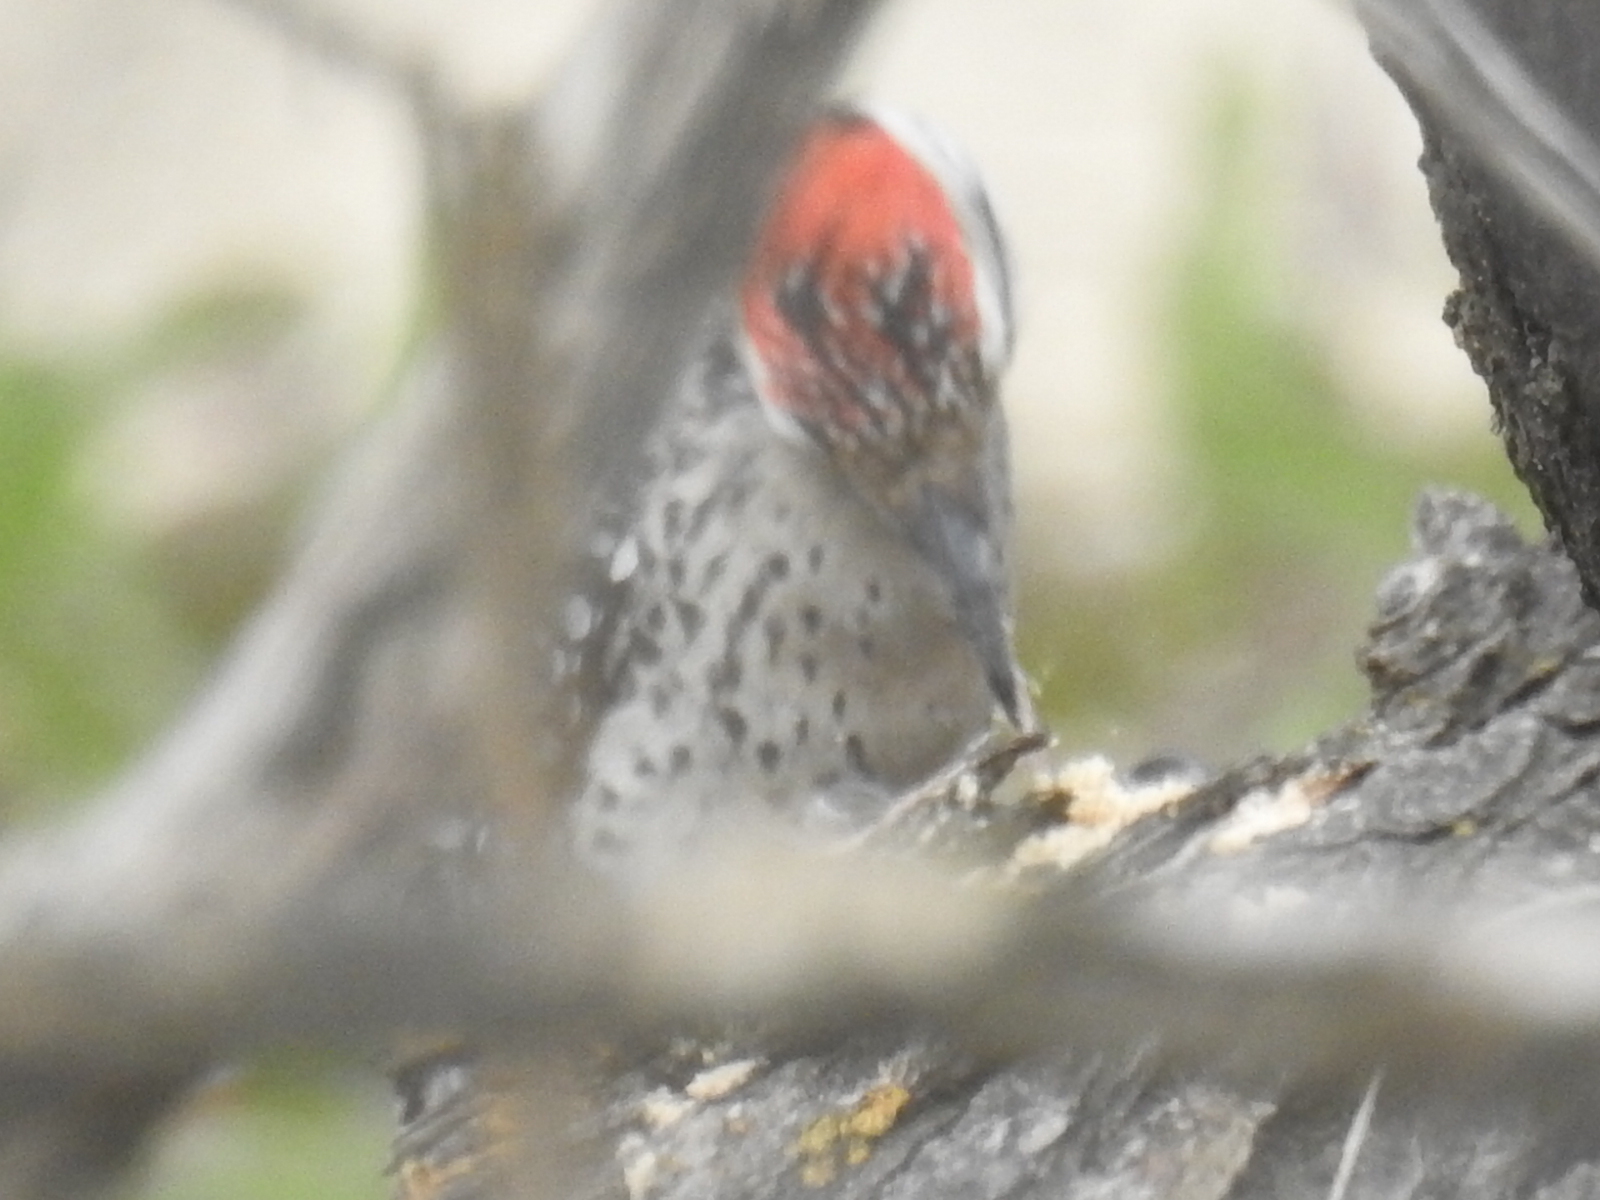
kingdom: Animalia
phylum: Chordata
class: Aves
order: Piciformes
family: Picidae
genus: Dryobates
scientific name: Dryobates scalaris
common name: Ladder-backed woodpecker
